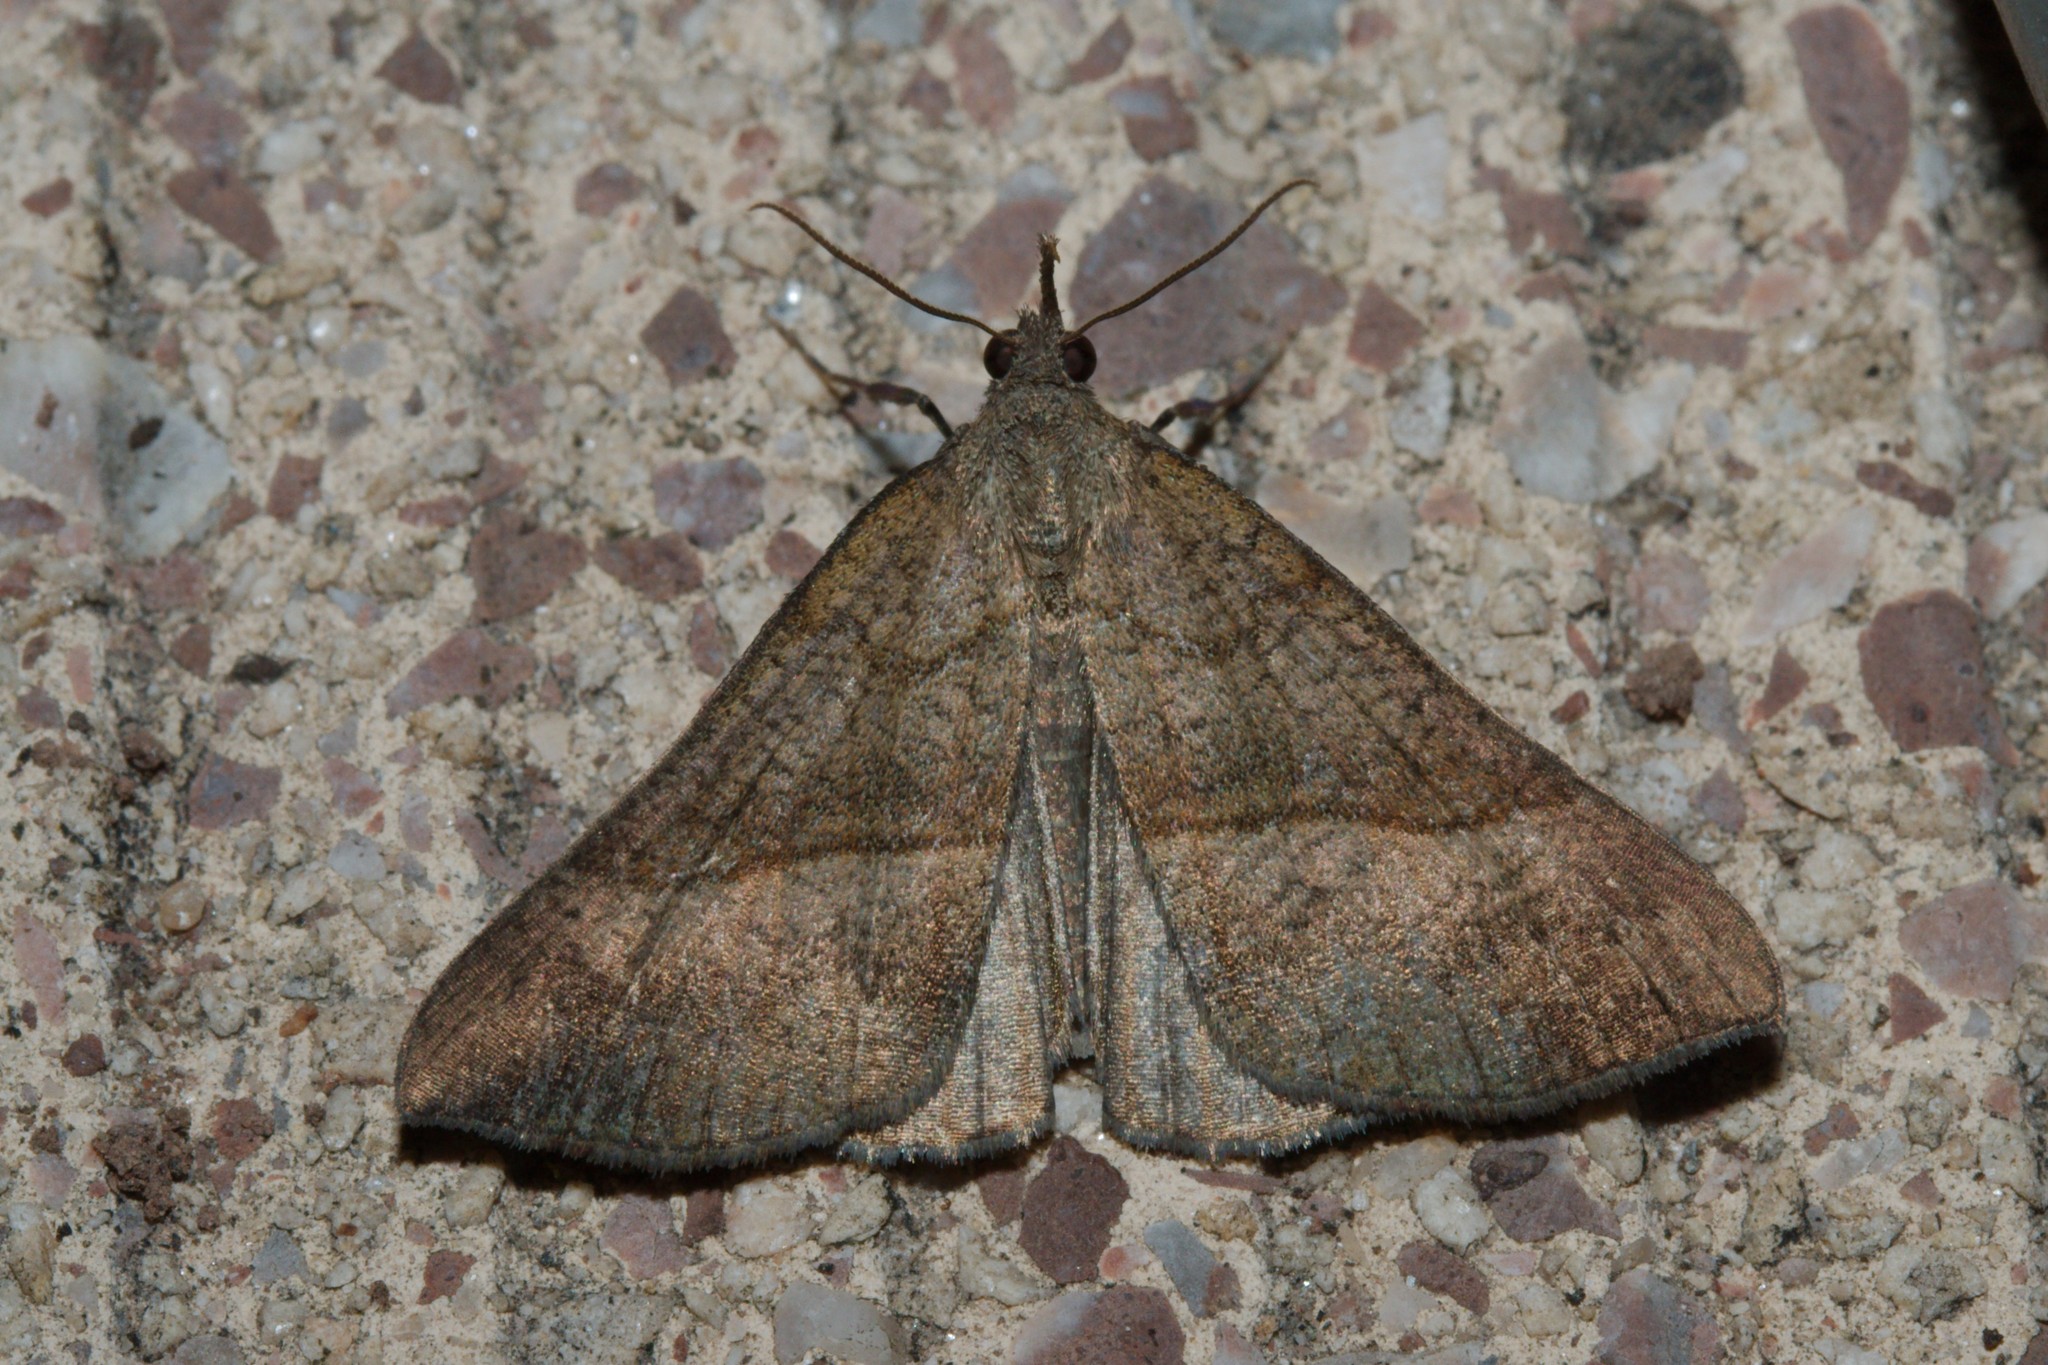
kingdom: Animalia
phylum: Arthropoda
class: Insecta
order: Lepidoptera
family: Erebidae
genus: Hypena
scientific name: Hypena proboscidalis
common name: Snout
